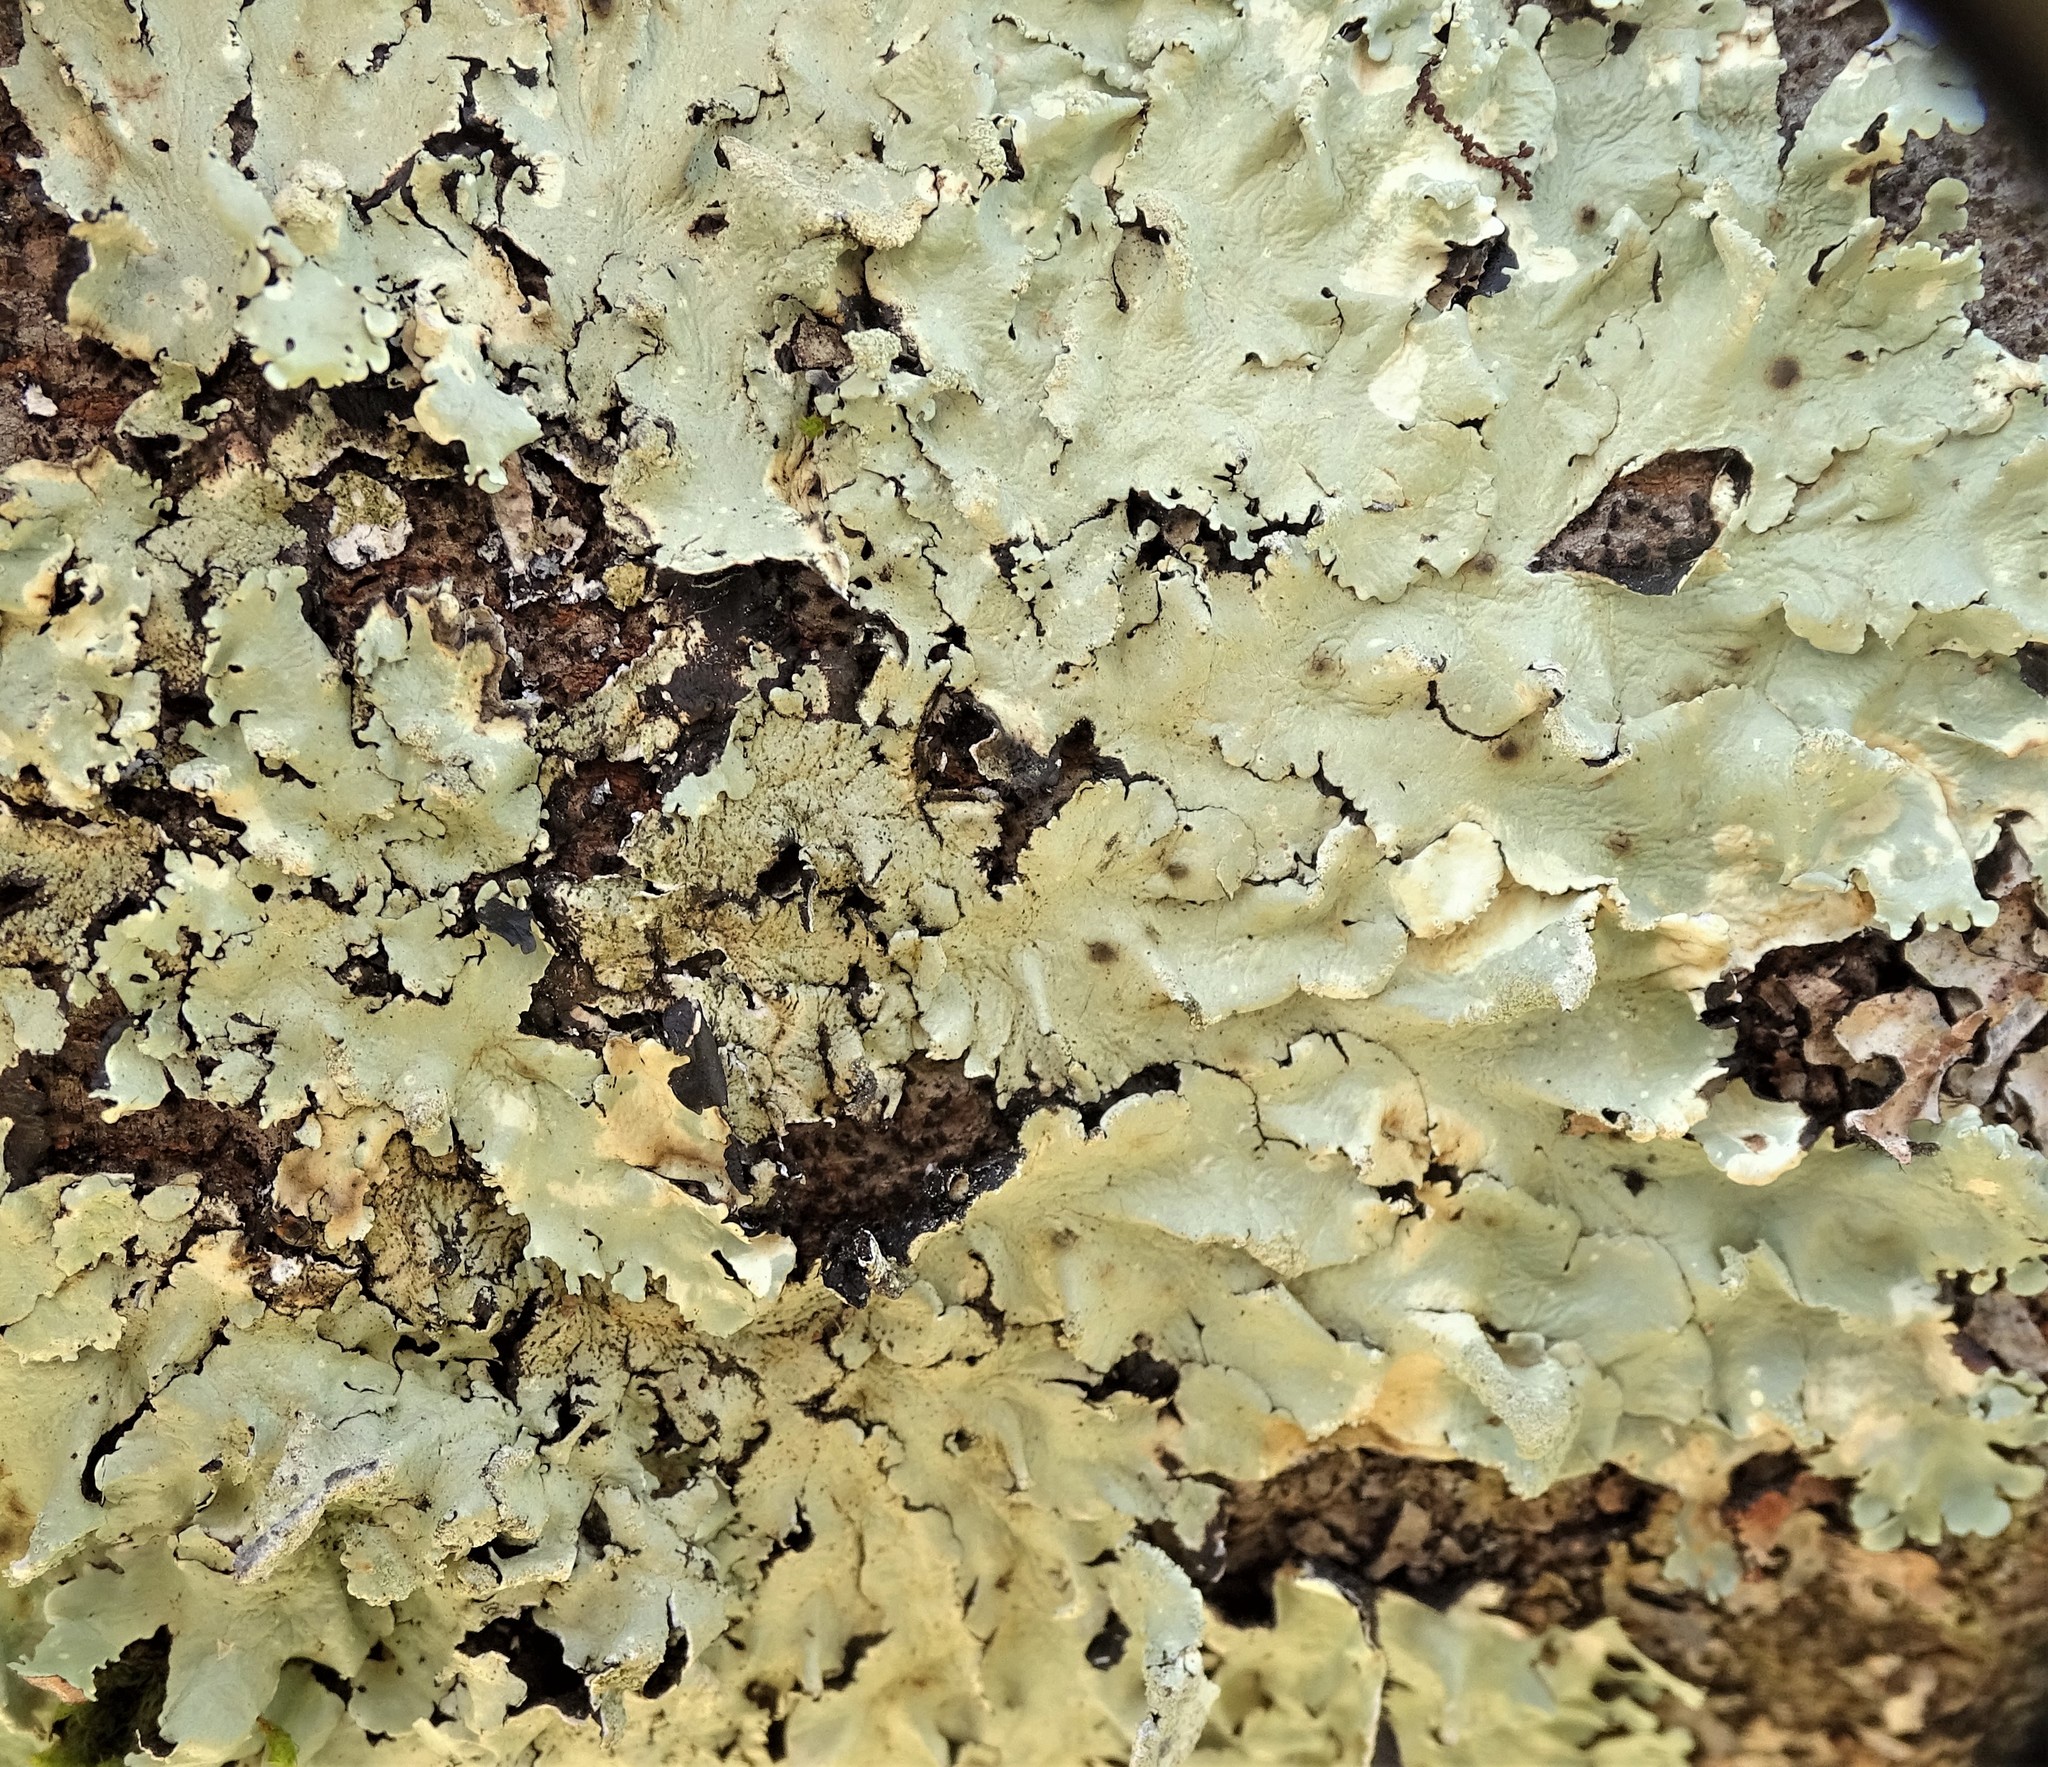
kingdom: Fungi
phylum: Ascomycota
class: Lecanoromycetes
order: Lecanorales
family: Parmeliaceae
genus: Flavoparmelia
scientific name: Flavoparmelia caperata
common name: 40-mile per hour lichen
